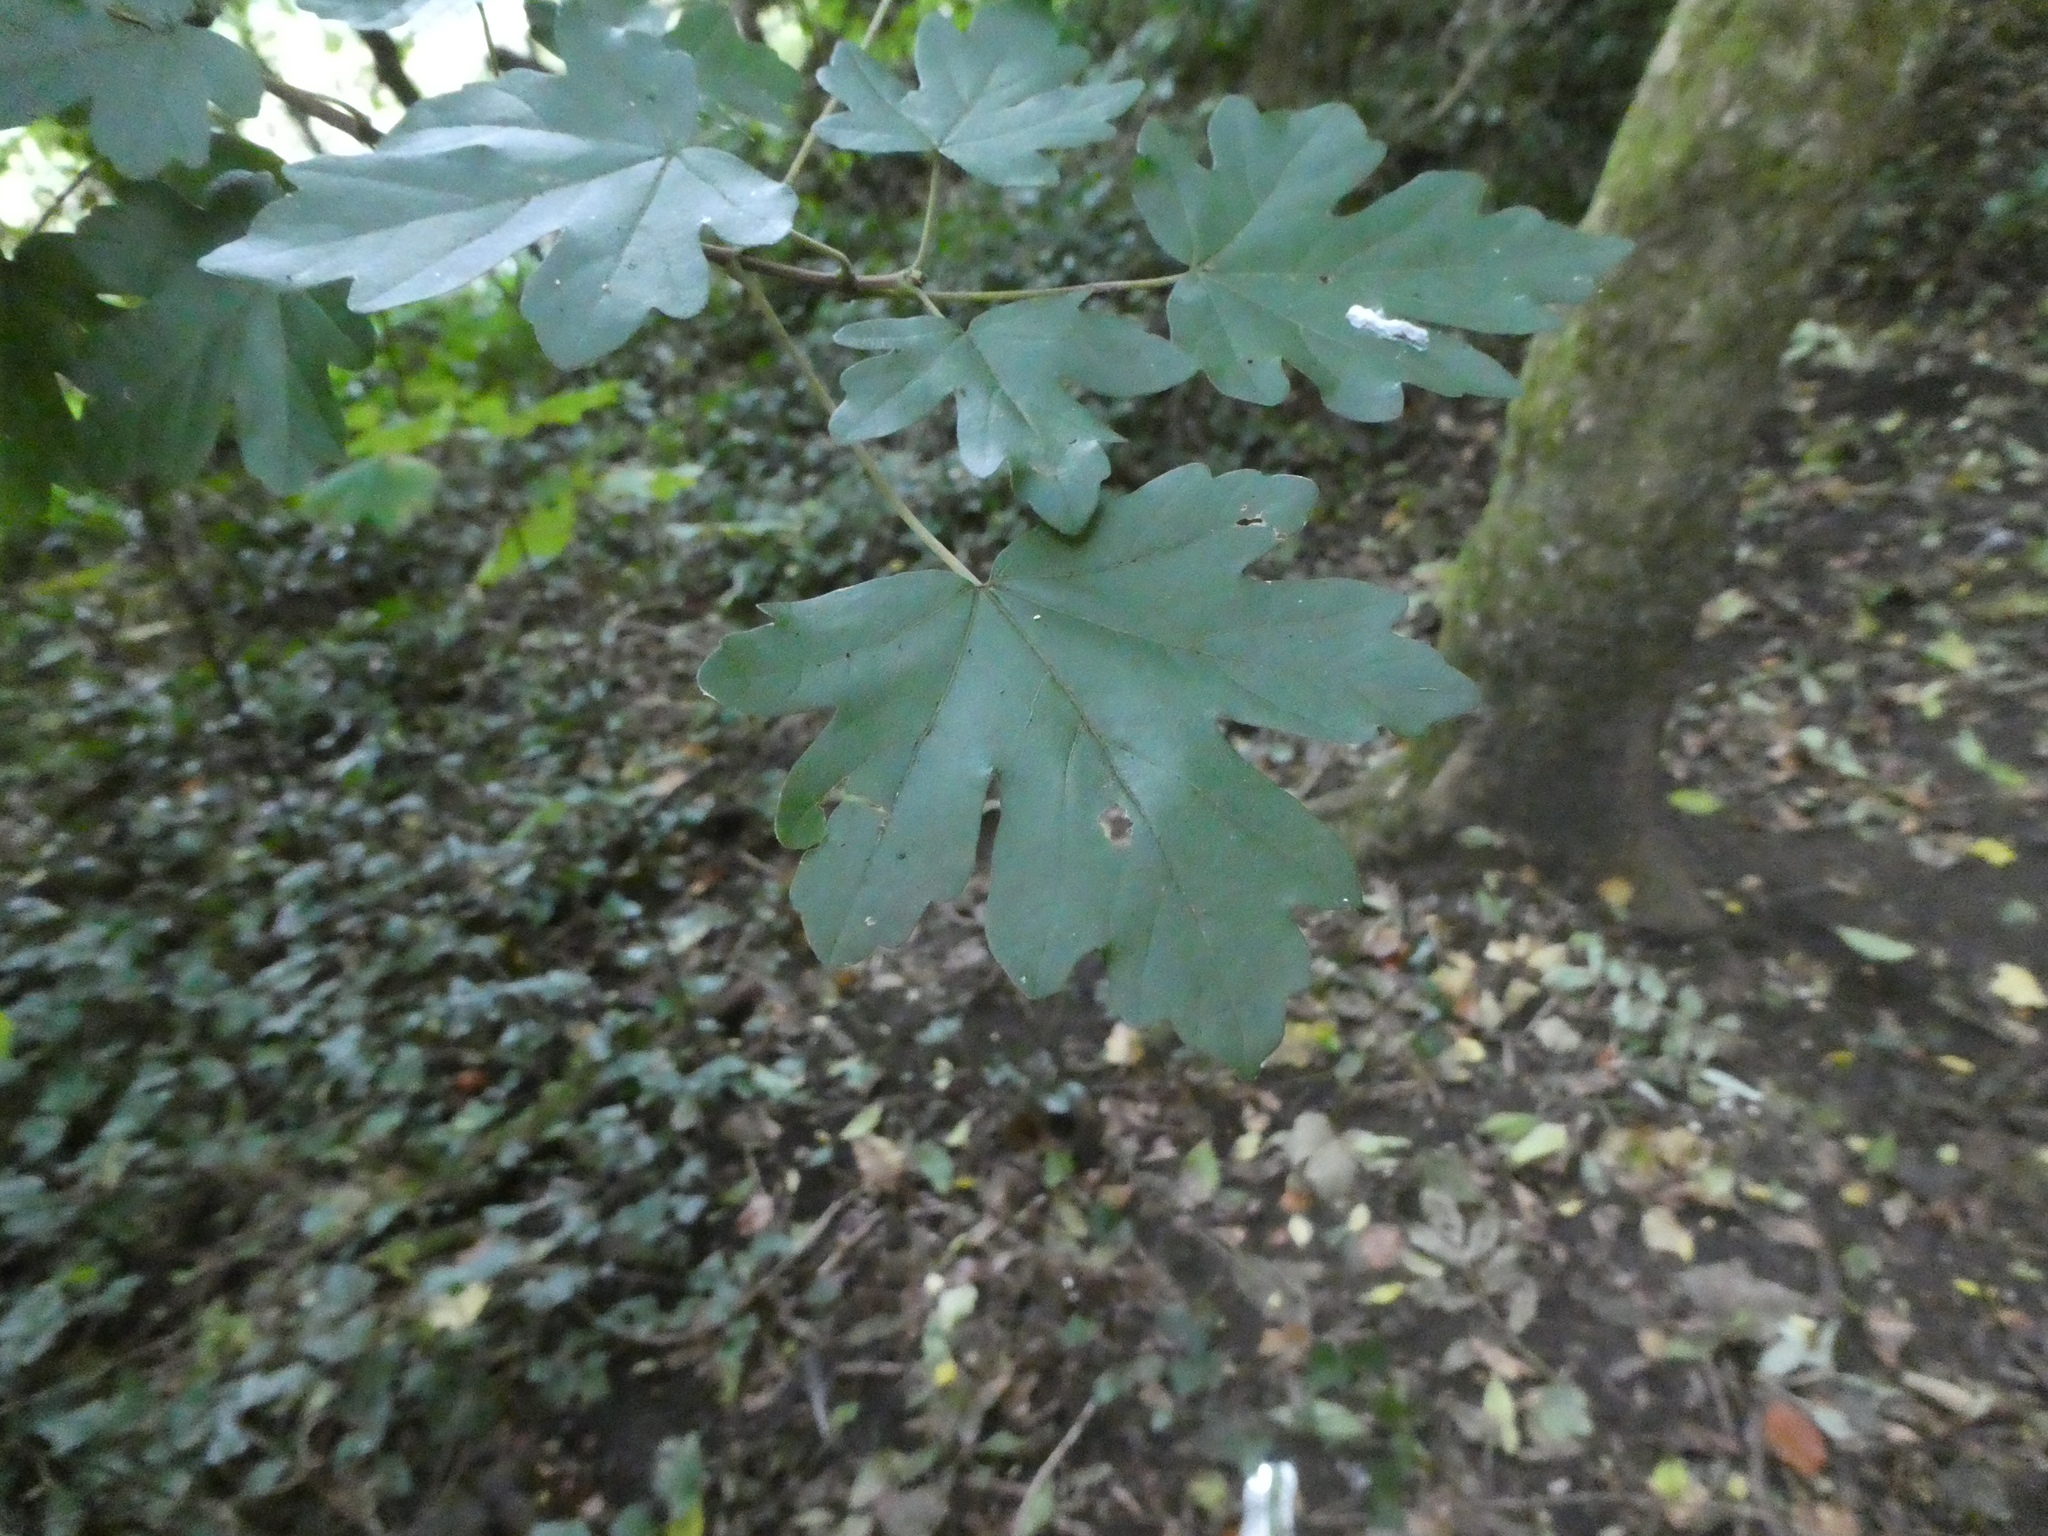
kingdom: Plantae
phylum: Tracheophyta
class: Magnoliopsida
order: Sapindales
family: Sapindaceae
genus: Acer
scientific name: Acer campestre
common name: Field maple
